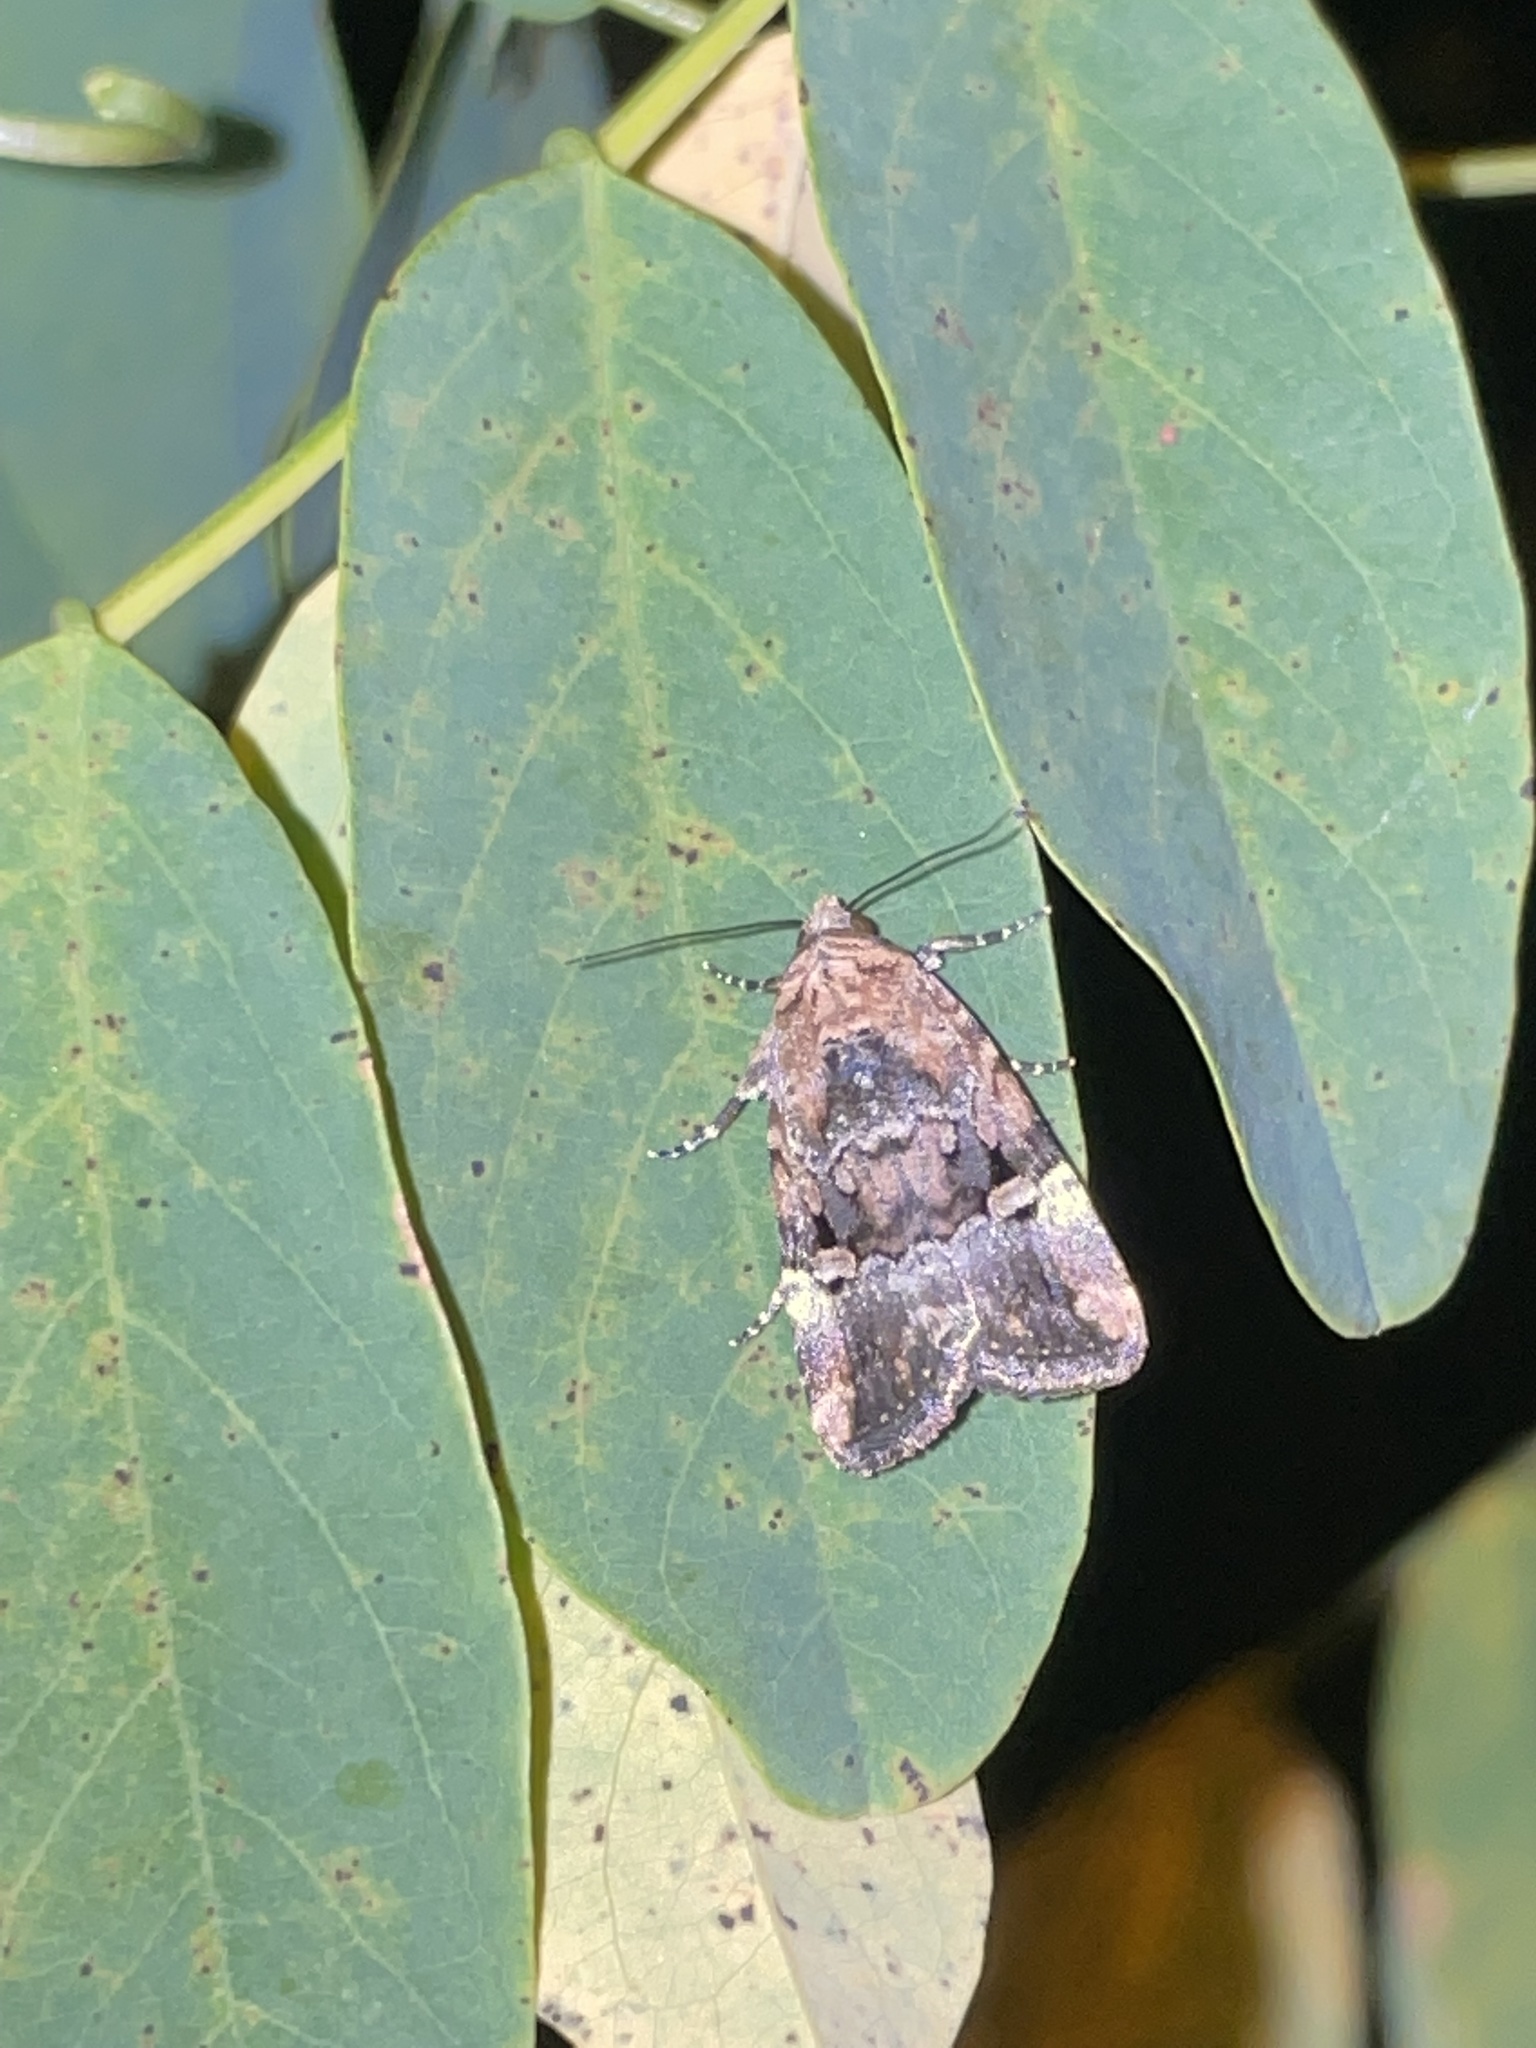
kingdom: Animalia
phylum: Arthropoda
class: Insecta
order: Lepidoptera
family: Noctuidae
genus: Elaphria
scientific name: Elaphria chalcedonia
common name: Chalcedony midget
